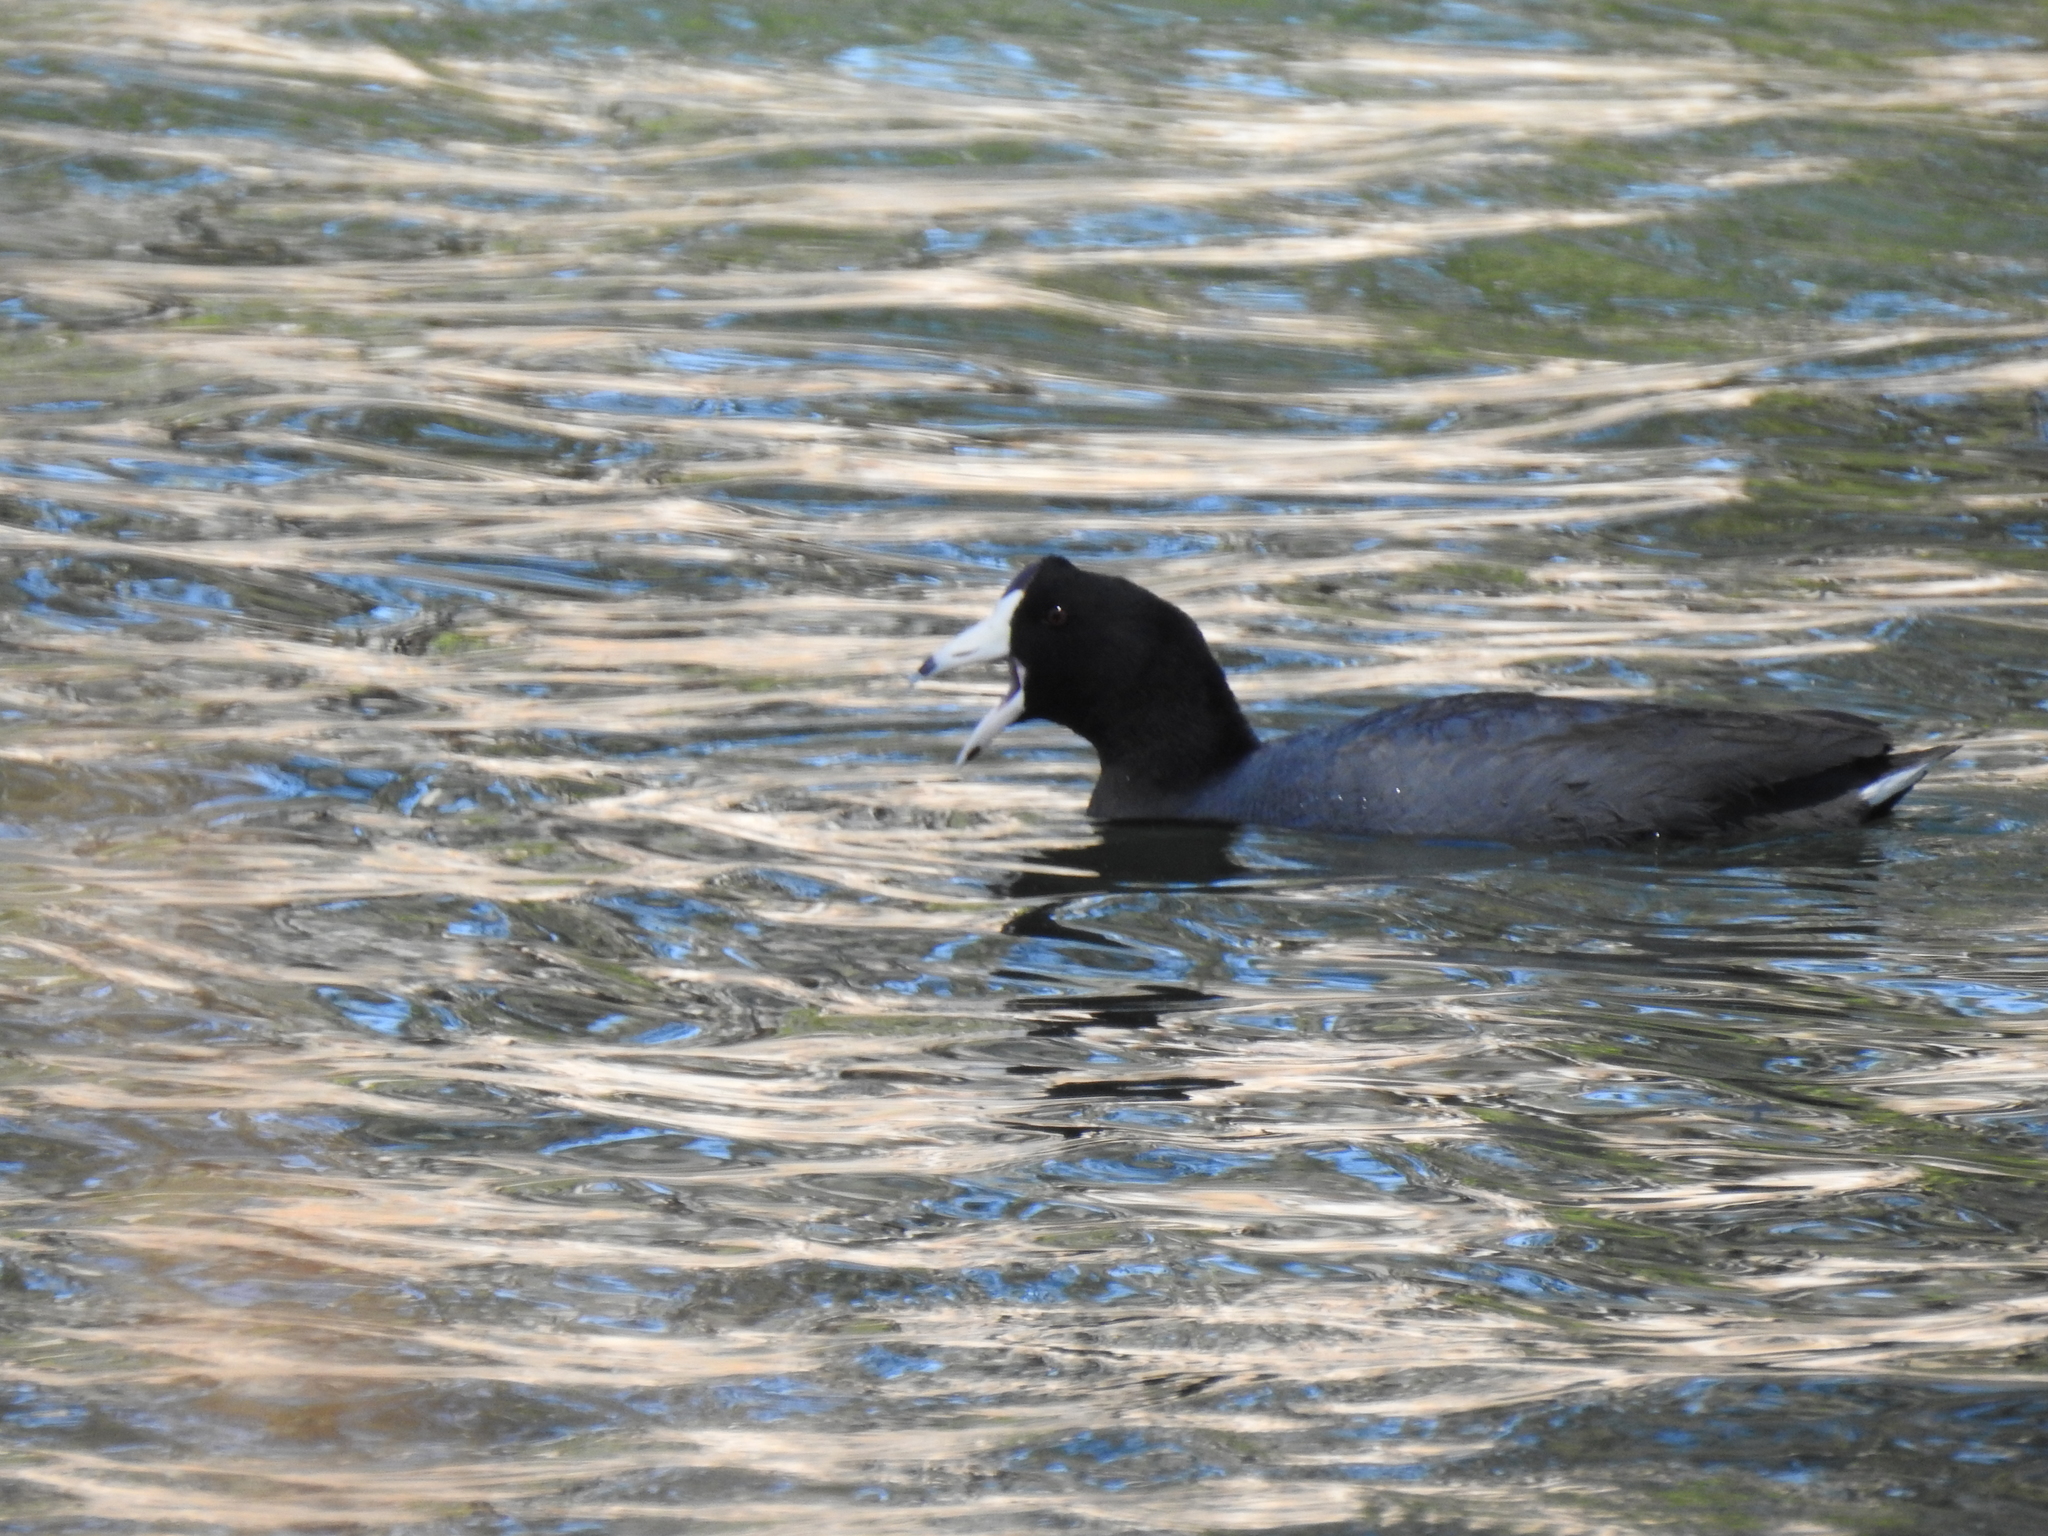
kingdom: Animalia
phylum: Chordata
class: Aves
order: Gruiformes
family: Rallidae
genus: Fulica
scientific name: Fulica americana
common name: American coot
